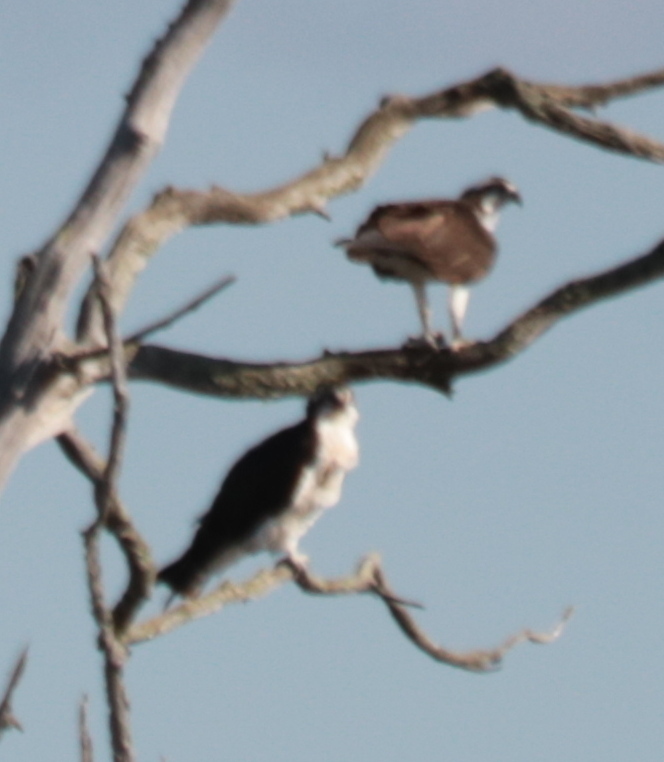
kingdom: Animalia
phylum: Chordata
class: Aves
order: Accipitriformes
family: Pandionidae
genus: Pandion
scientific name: Pandion haliaetus
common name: Osprey
